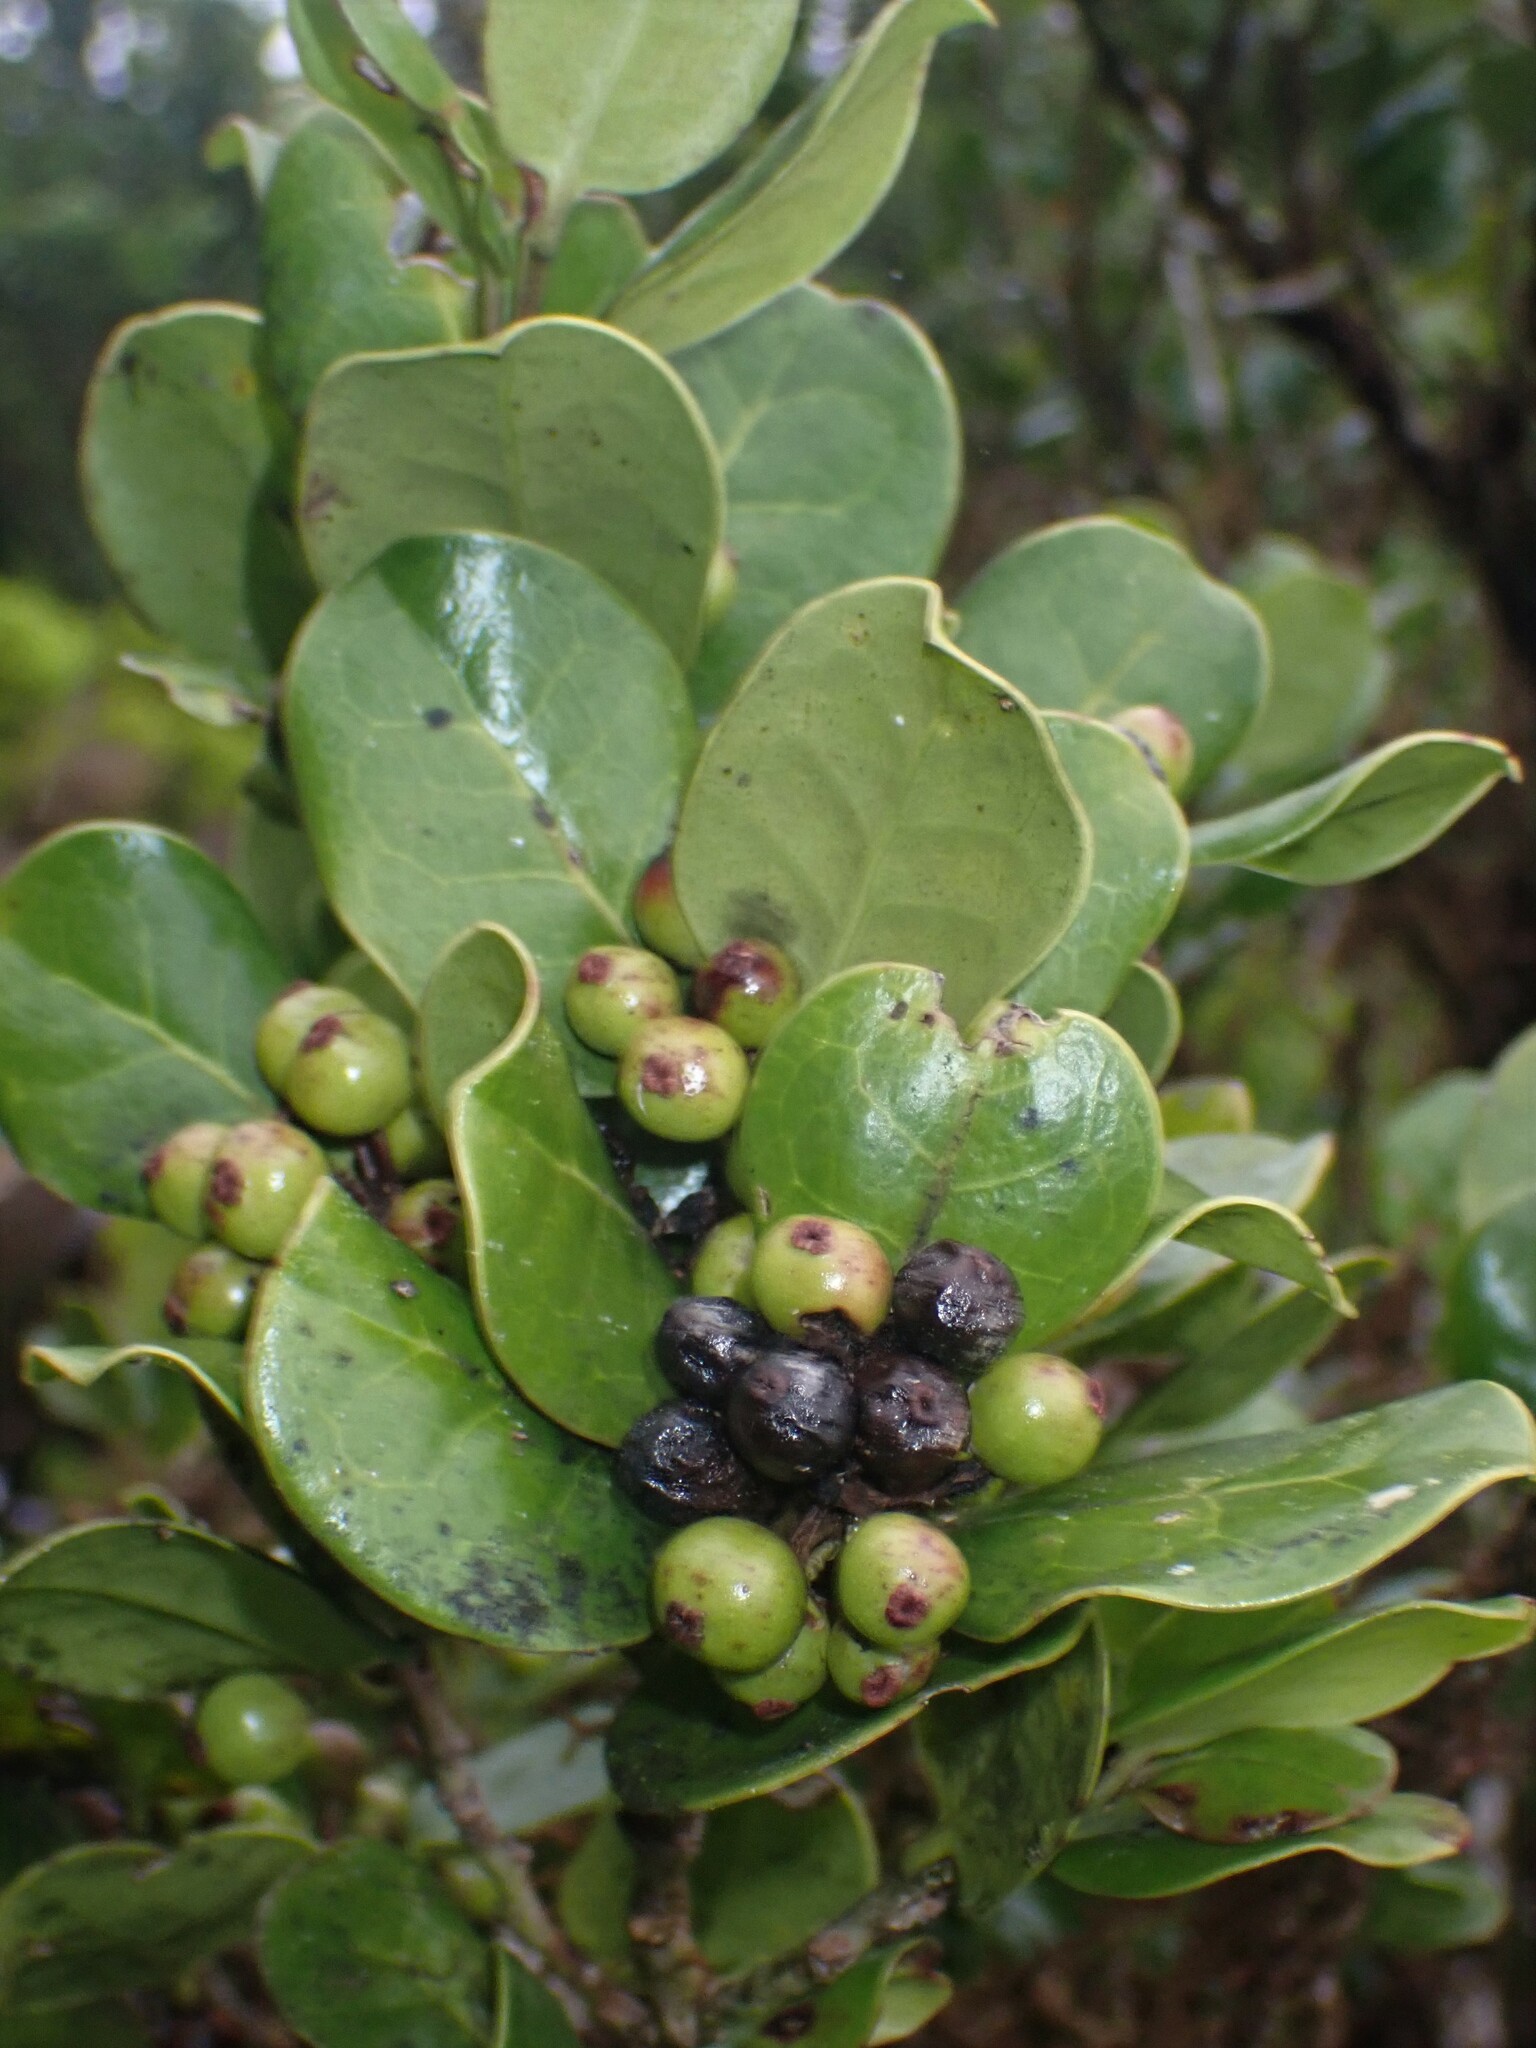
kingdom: Plantae
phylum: Tracheophyta
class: Magnoliopsida
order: Aquifoliales
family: Aquifoliaceae
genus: Ilex
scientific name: Ilex perado
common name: Madeira holly
